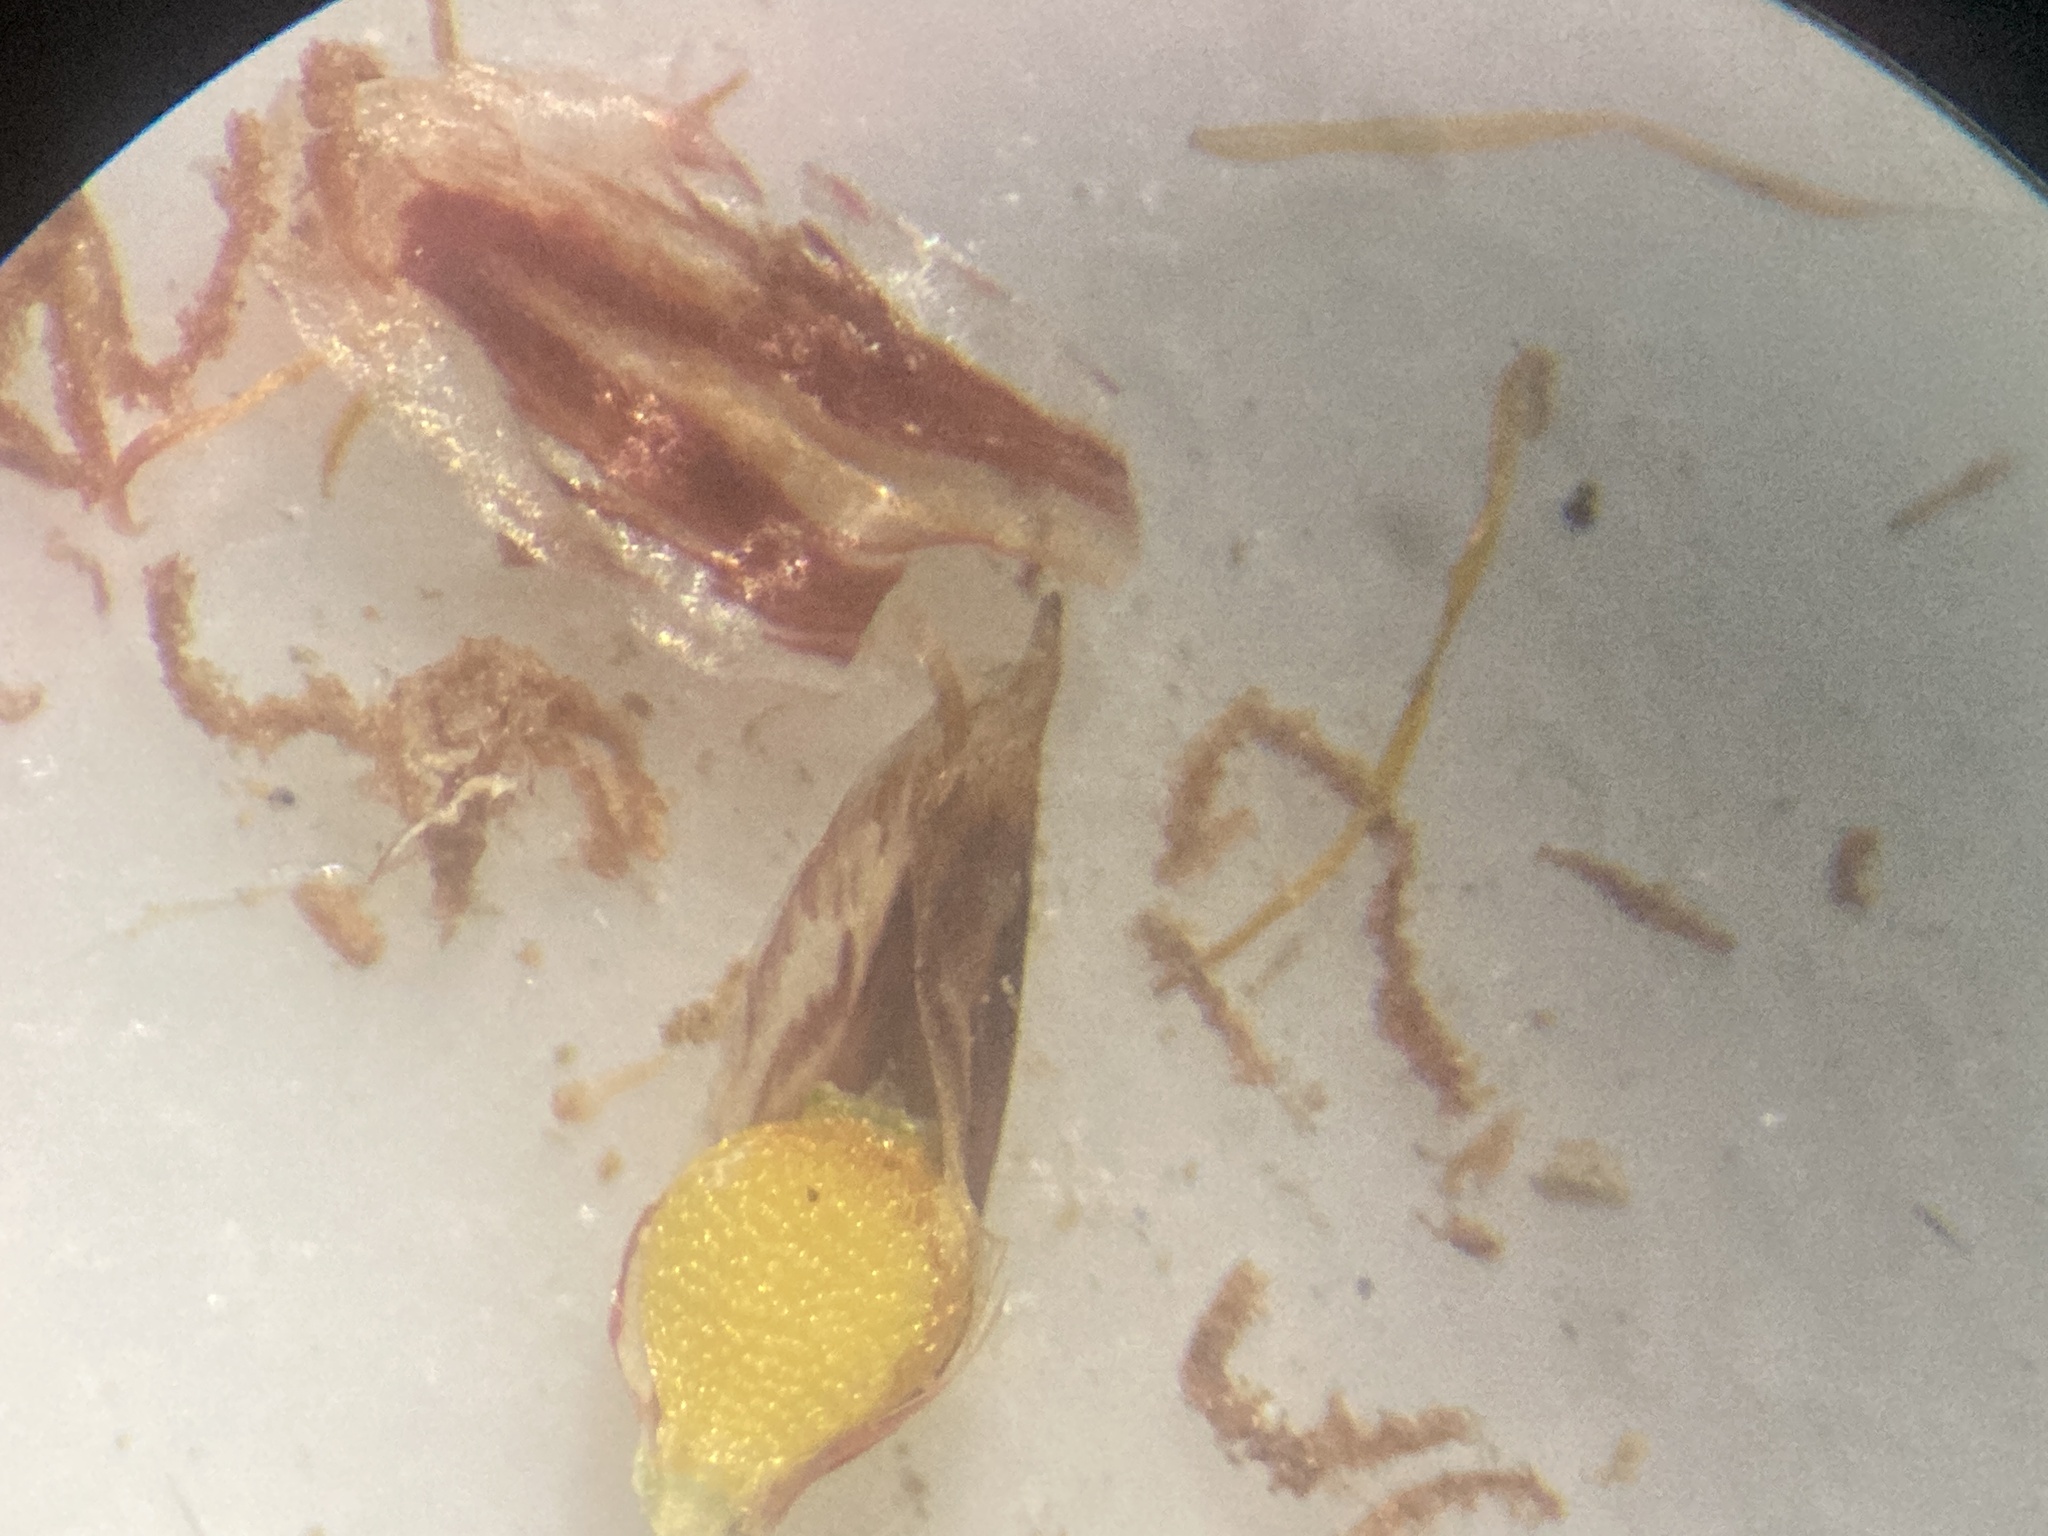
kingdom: Plantae
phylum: Tracheophyta
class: Liliopsida
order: Poales
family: Cyperaceae
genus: Eleocharis
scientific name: Eleocharis elliptica
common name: Capitate spikerush
